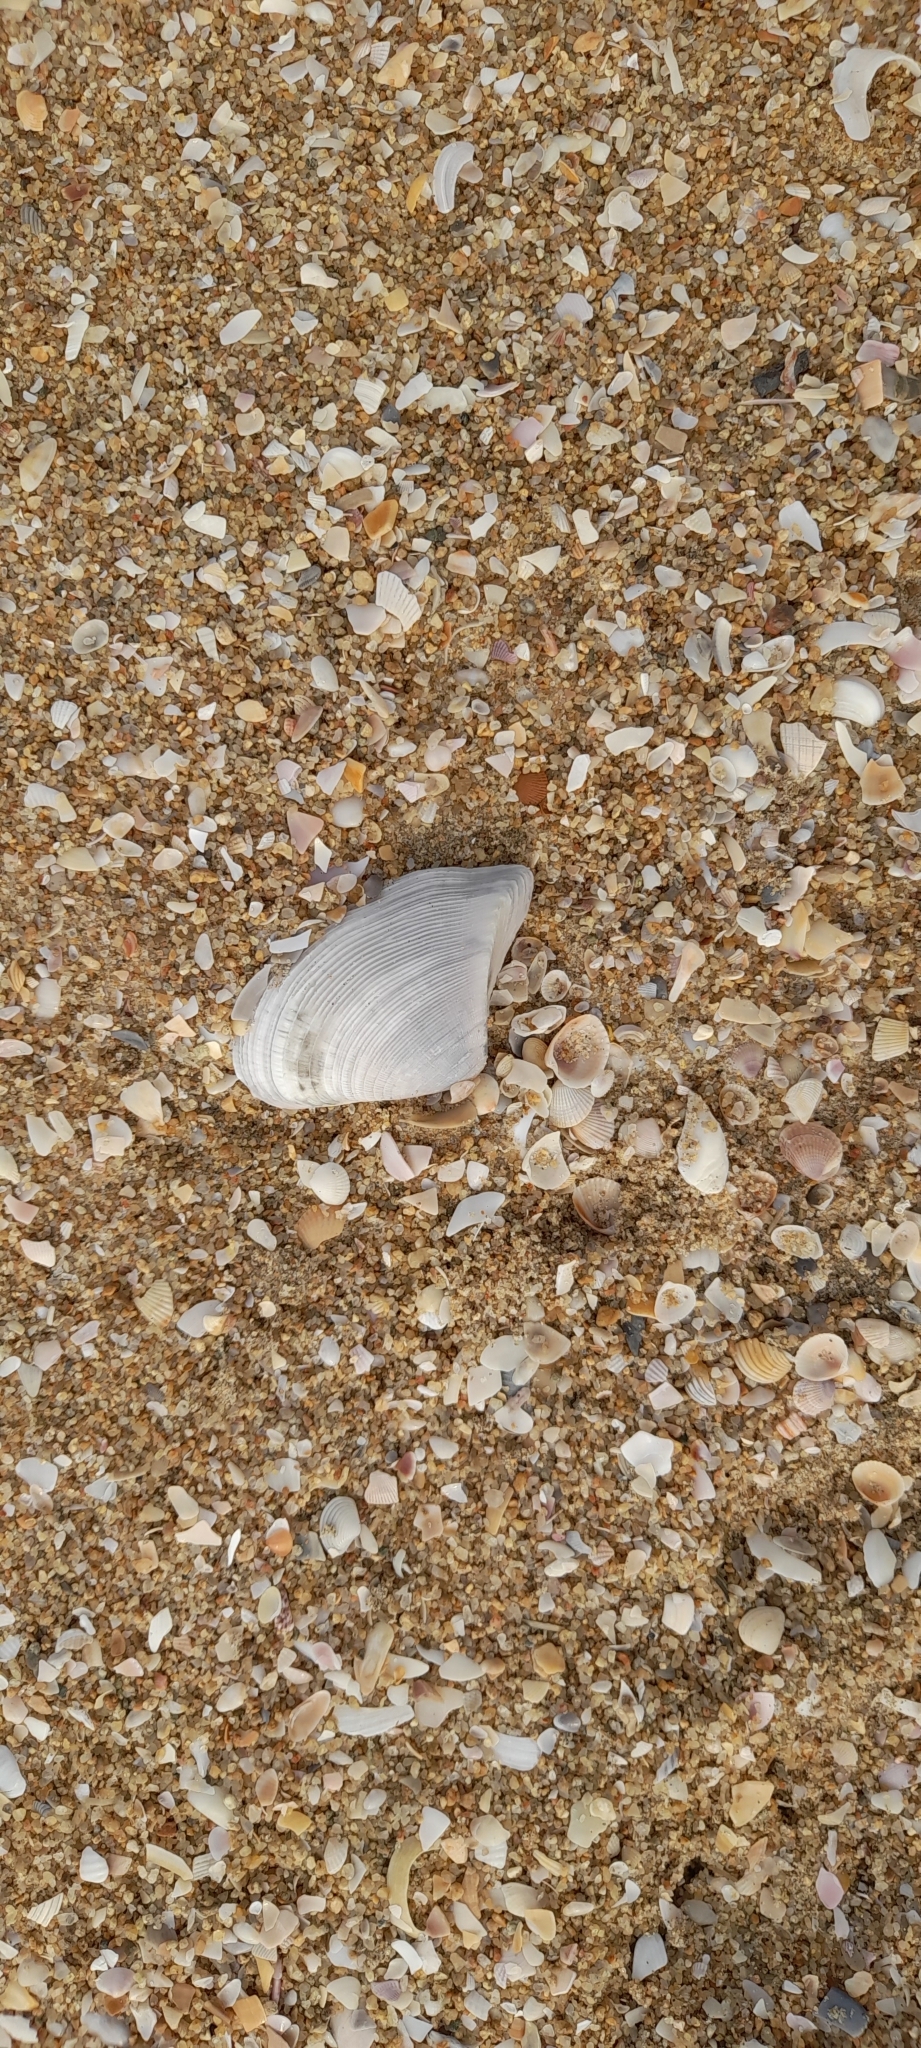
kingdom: Animalia
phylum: Mollusca
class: Bivalvia
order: Cardiida
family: Donacidae
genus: Hecuba
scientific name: Hecuba scortum
